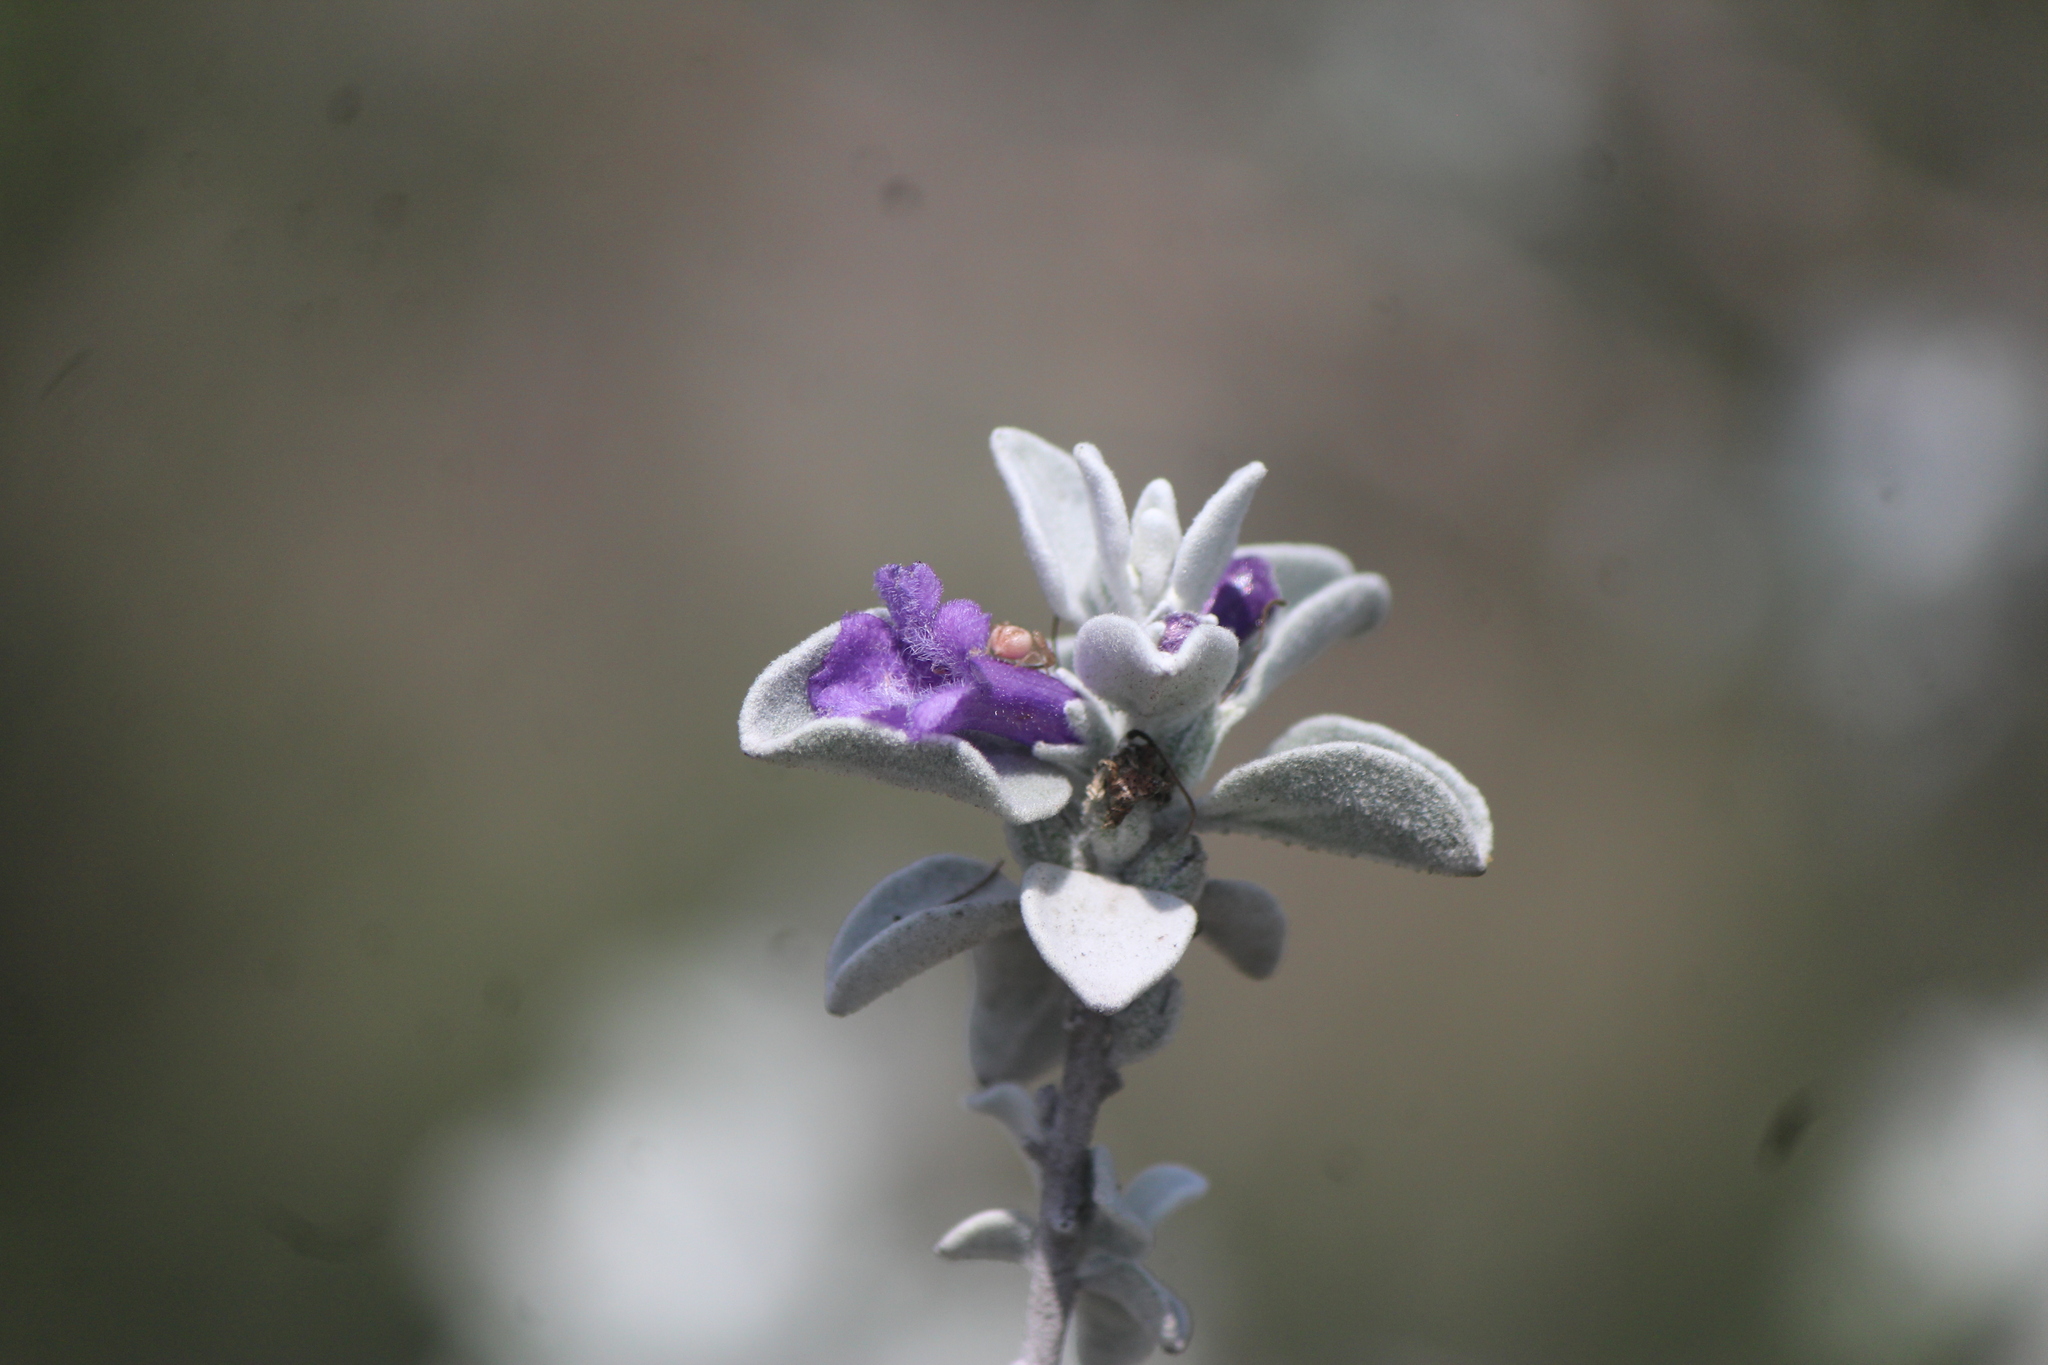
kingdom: Plantae
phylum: Tracheophyta
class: Magnoliopsida
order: Lamiales
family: Scrophulariaceae
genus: Leucophyllum
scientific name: Leucophyllum minus
